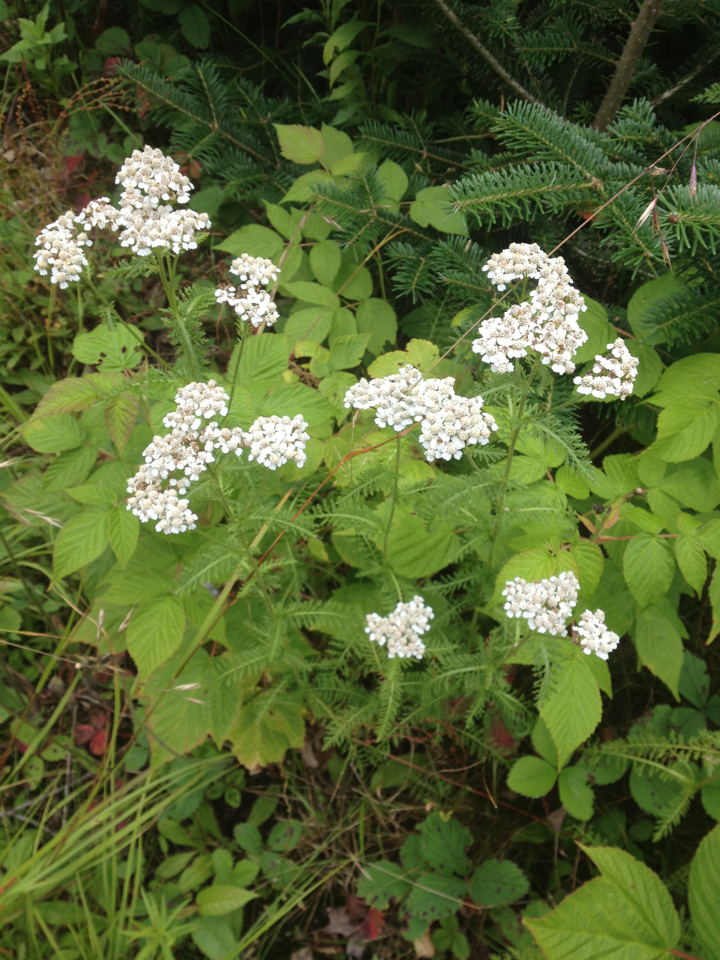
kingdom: Plantae
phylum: Tracheophyta
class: Magnoliopsida
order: Asterales
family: Asteraceae
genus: Achillea
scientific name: Achillea millefolium
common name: Yarrow
